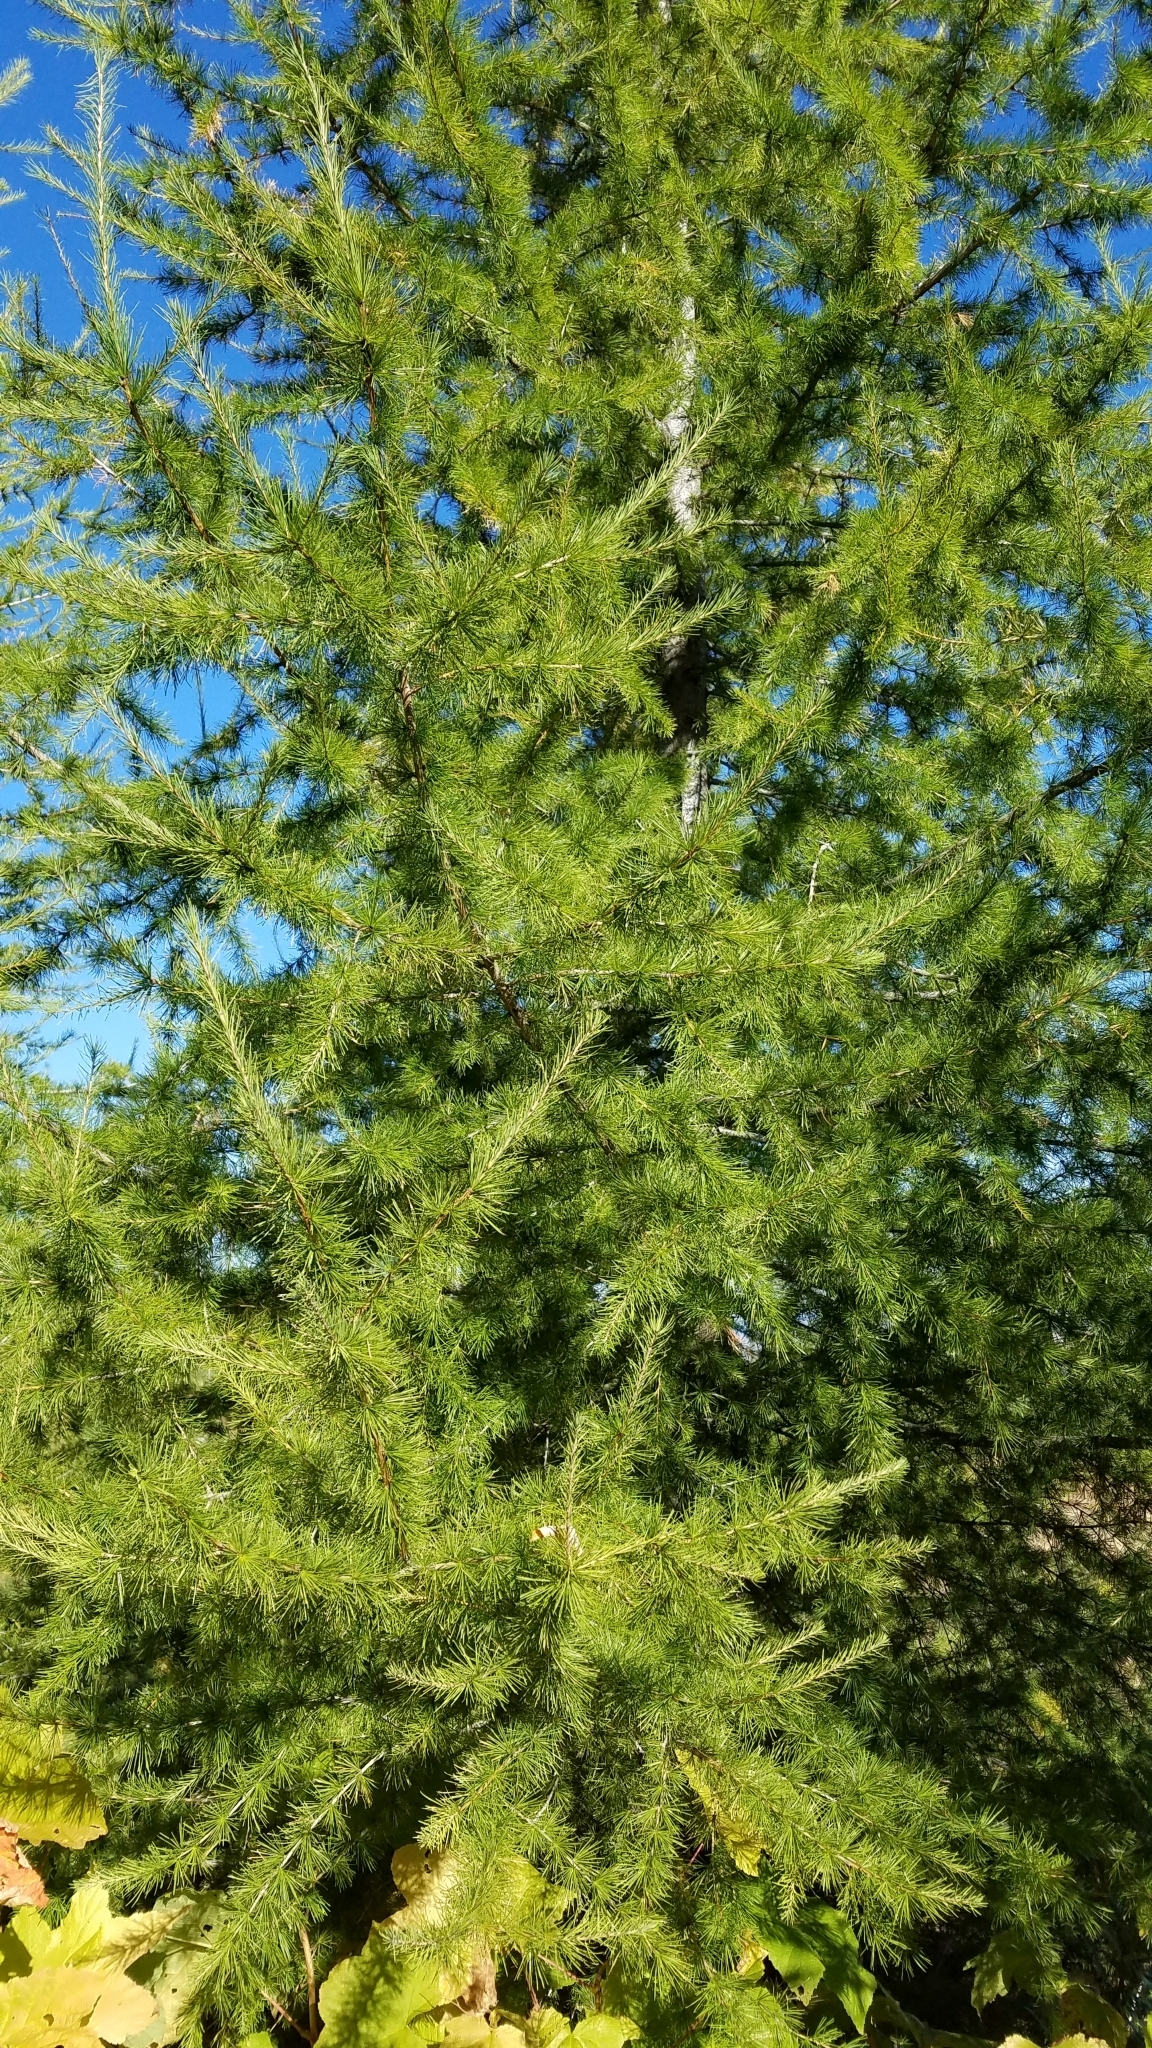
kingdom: Plantae
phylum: Tracheophyta
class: Pinopsida
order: Pinales
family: Pinaceae
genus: Larix
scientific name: Larix occidentalis
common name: Western larch
